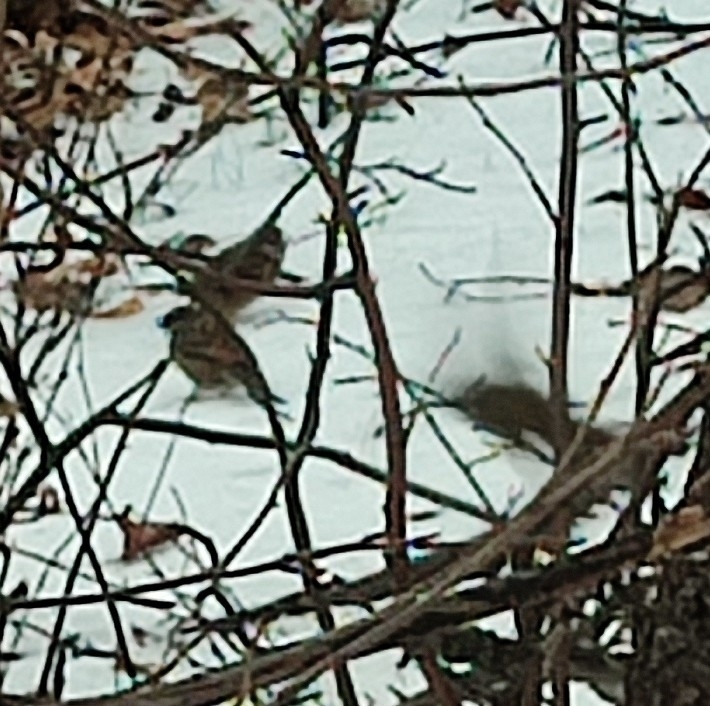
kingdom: Animalia
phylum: Chordata
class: Aves
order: Passeriformes
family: Passeridae
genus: Passer
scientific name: Passer montanus
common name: Eurasian tree sparrow
